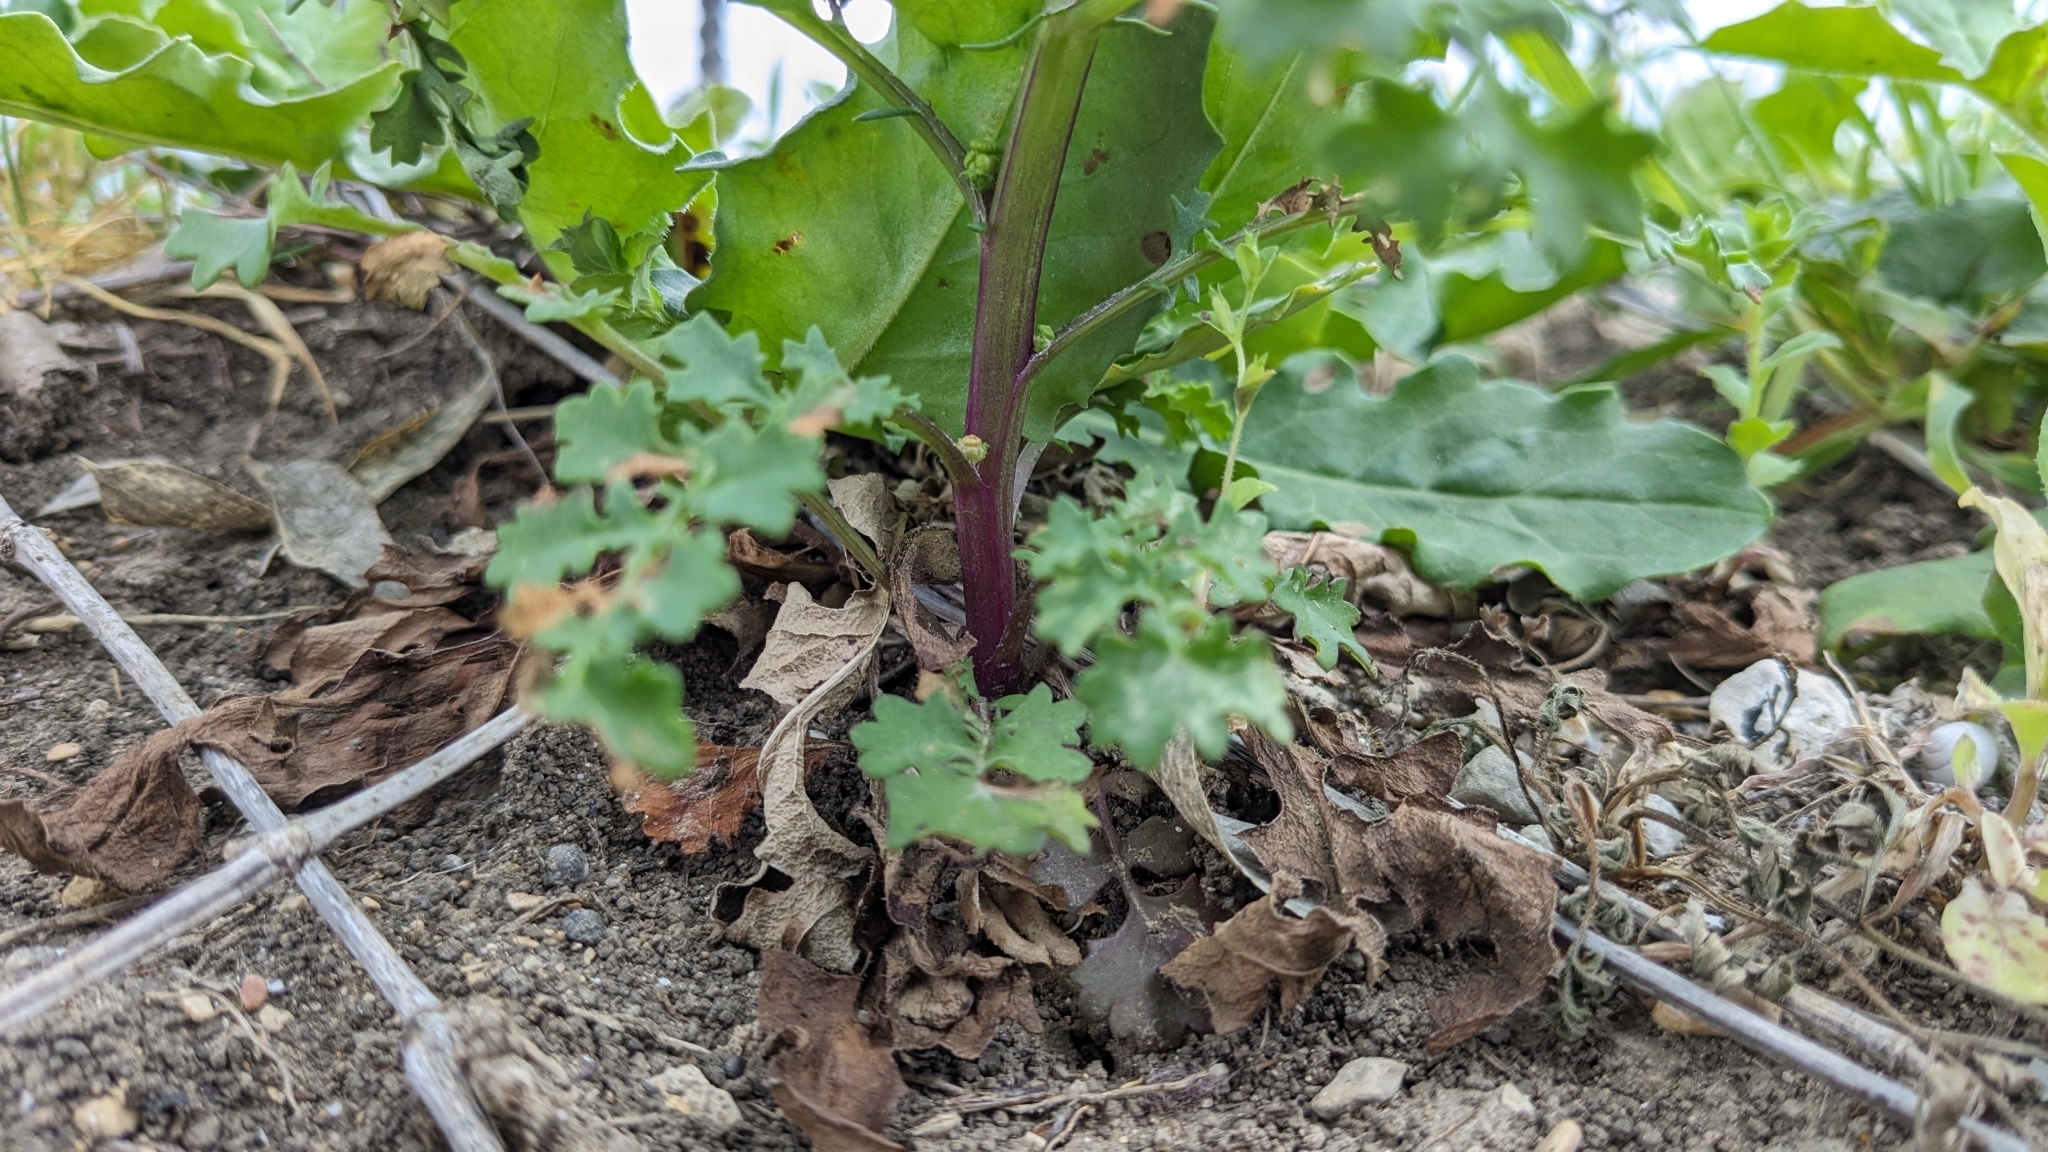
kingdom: Plantae
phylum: Tracheophyta
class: Magnoliopsida
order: Asterales
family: Asteraceae
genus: Packera
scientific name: Packera tampicana
